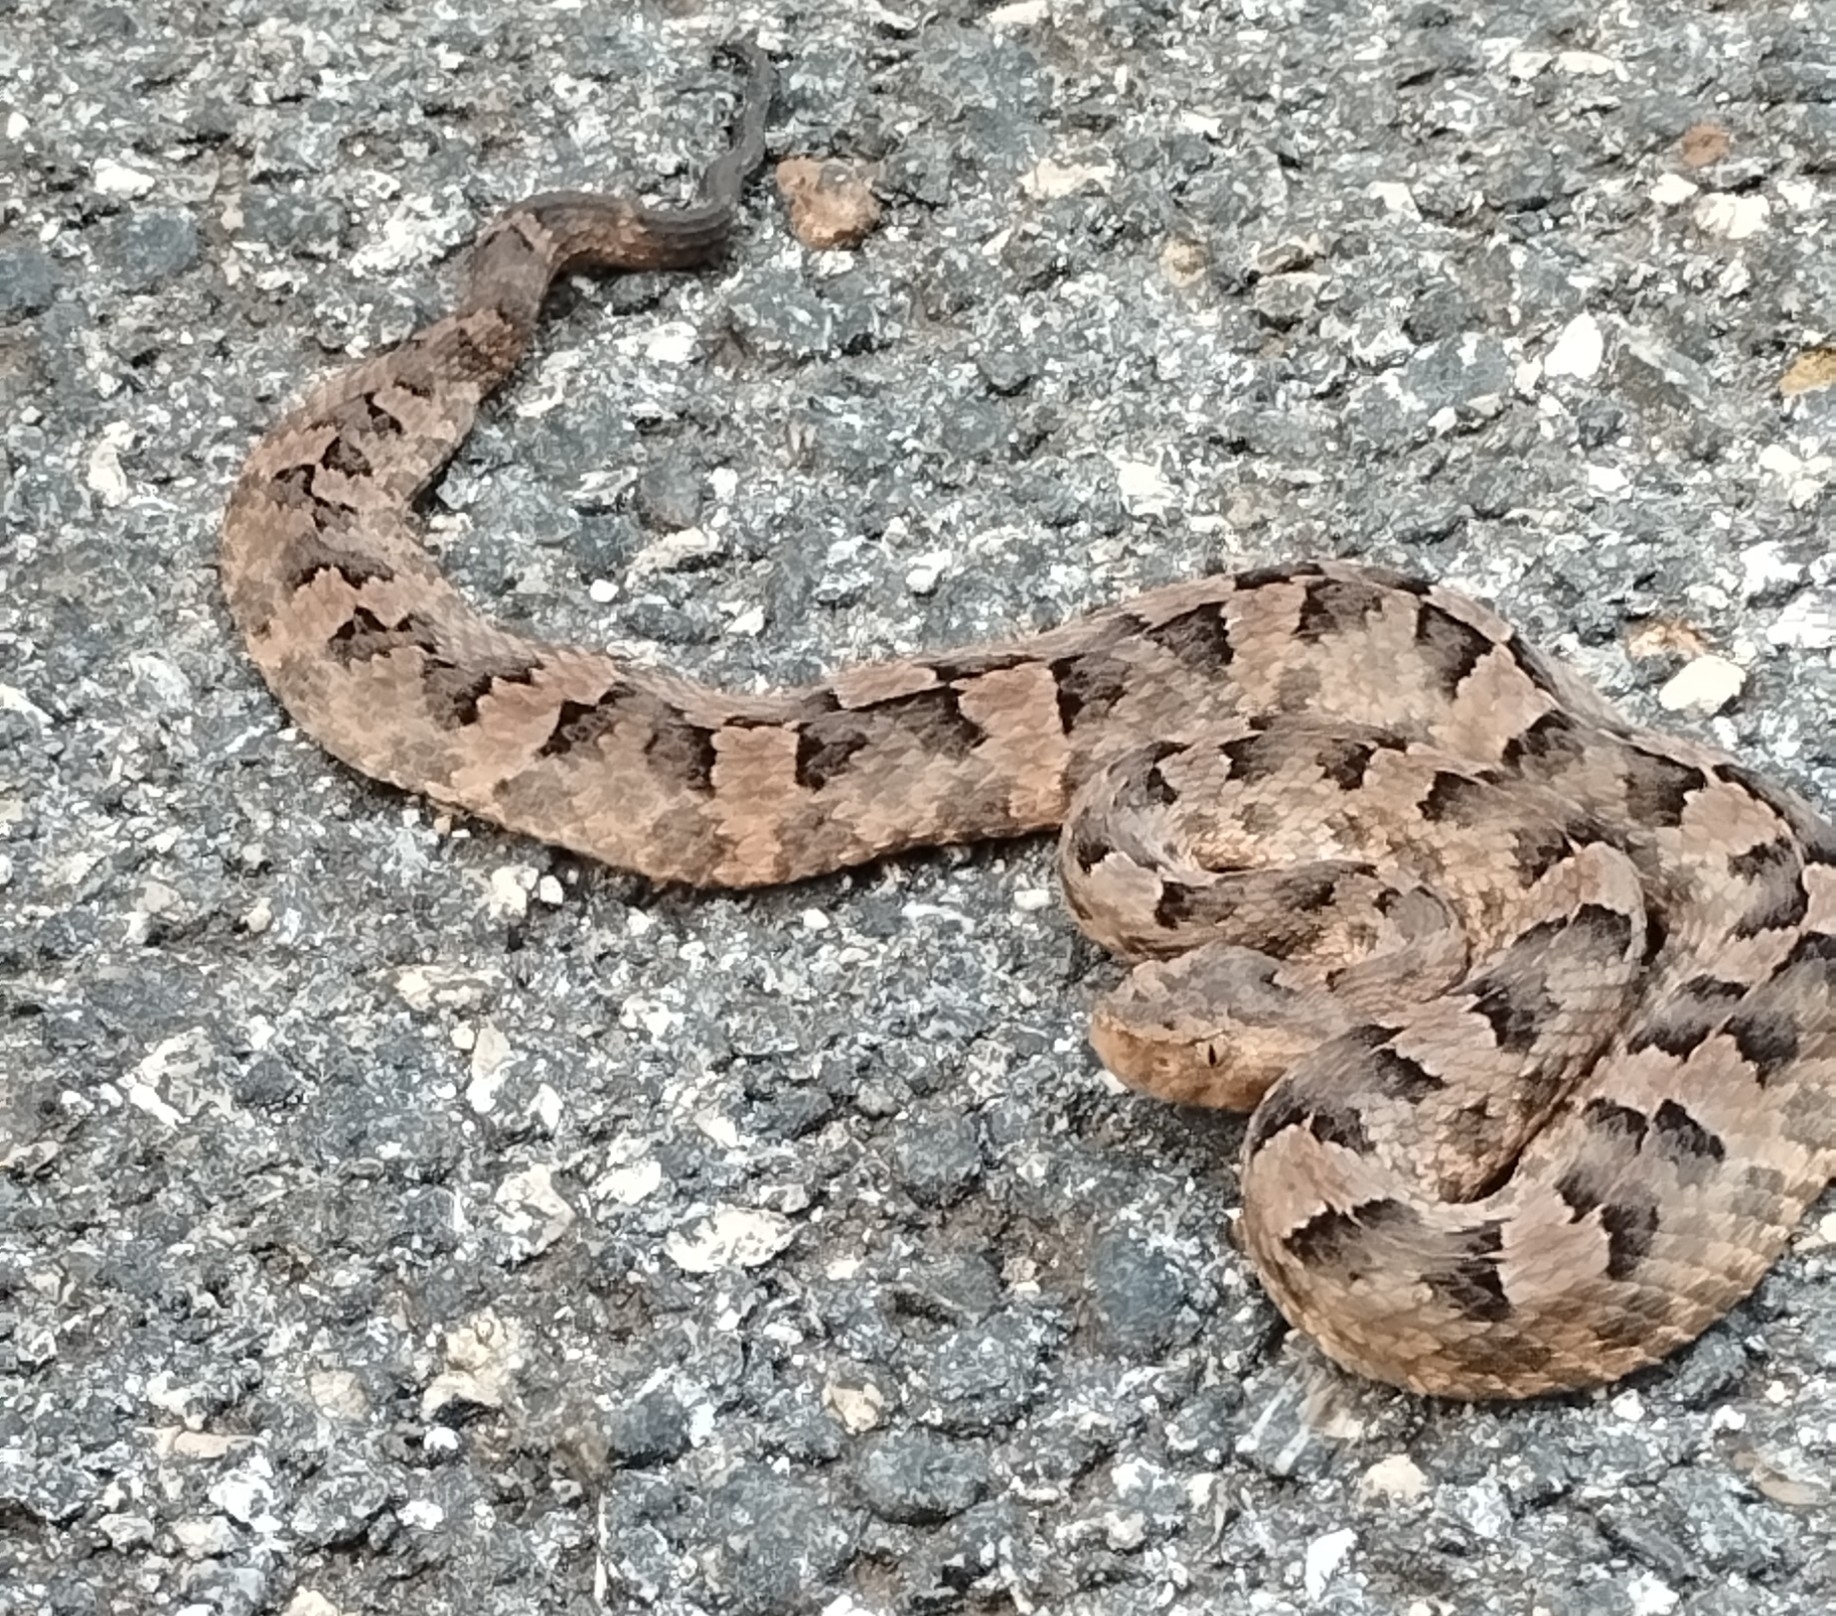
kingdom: Animalia
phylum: Chordata
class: Squamata
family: Viperidae
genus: Porthidium
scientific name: Porthidium yucatanicum
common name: Yucatán hognose viper
